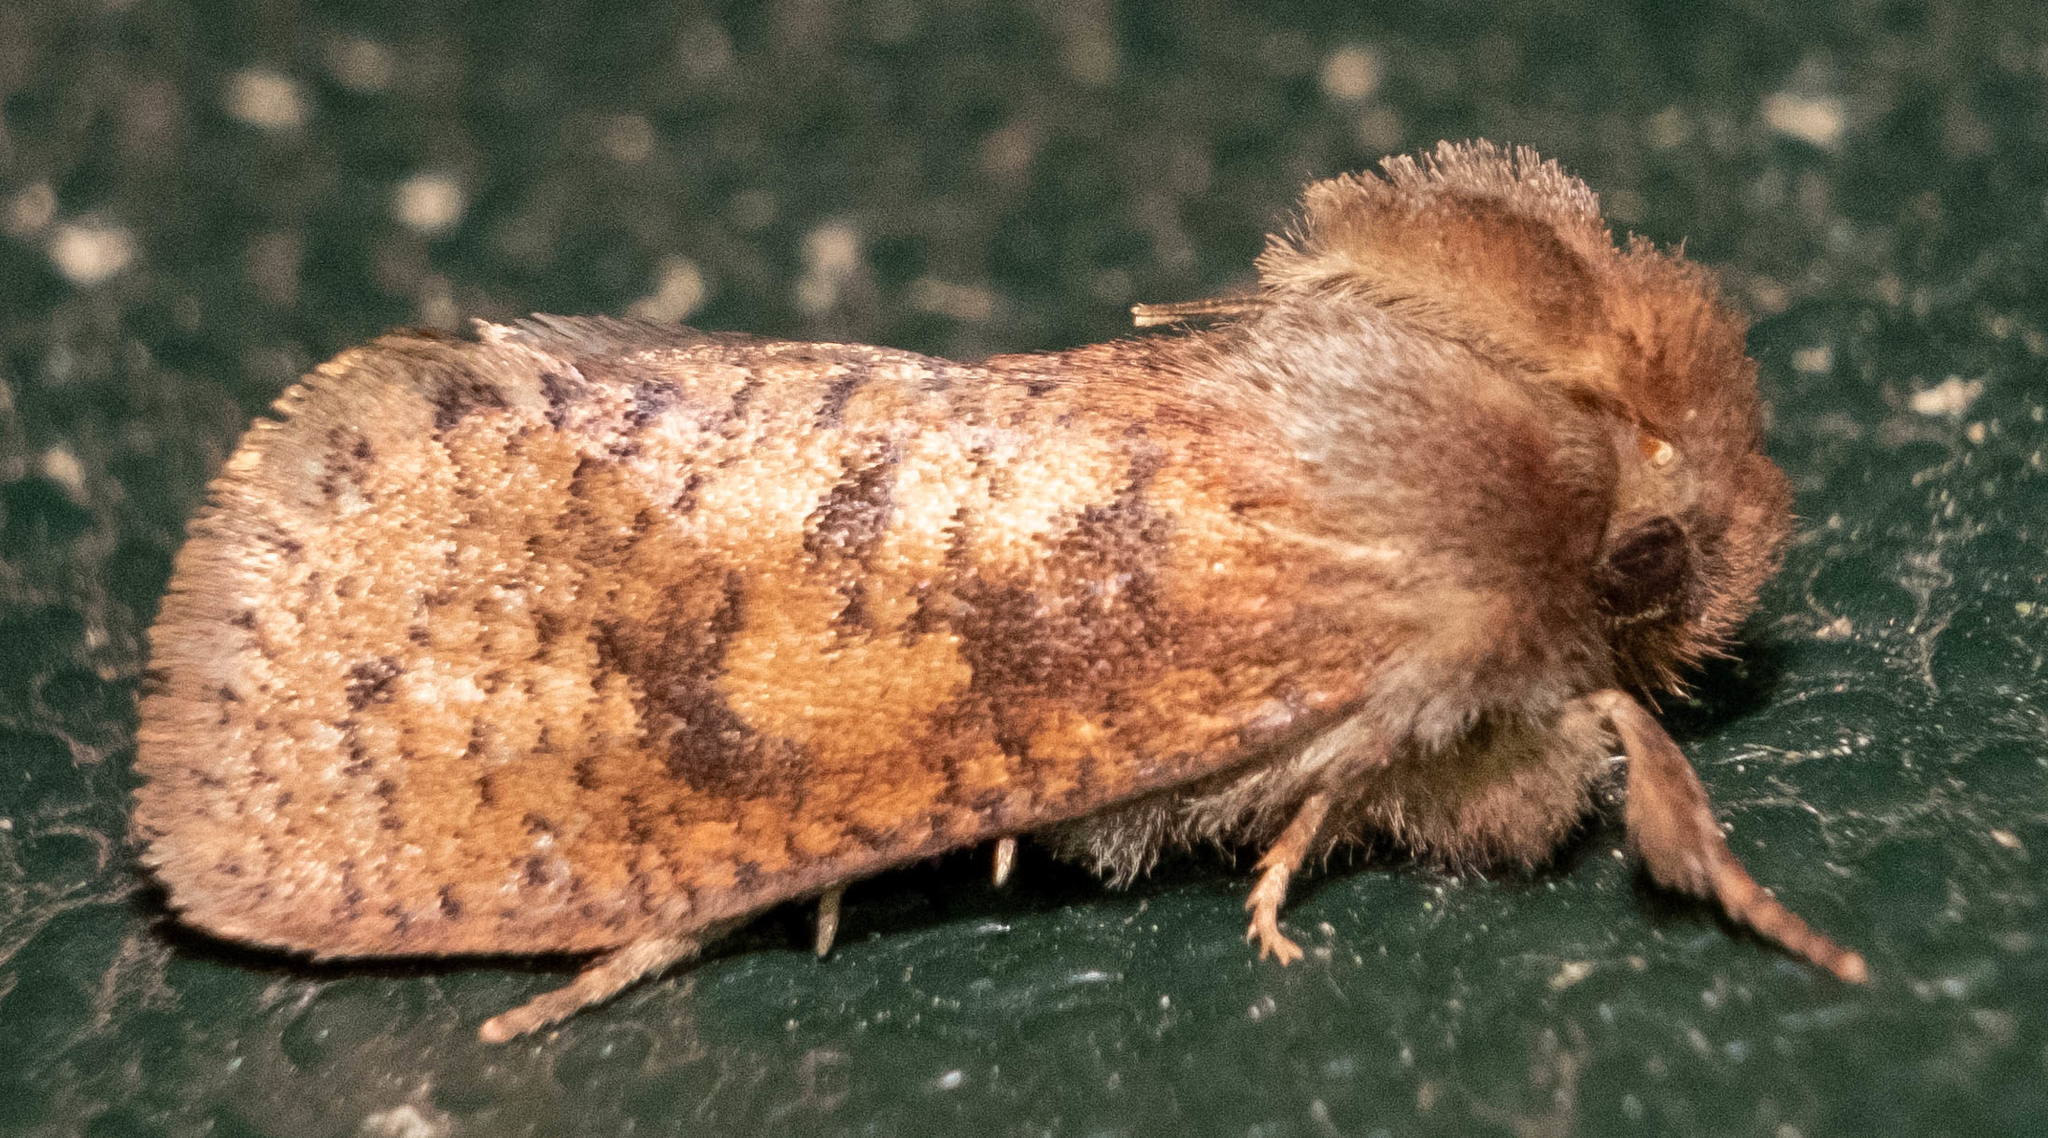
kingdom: Animalia
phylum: Arthropoda
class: Insecta
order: Lepidoptera
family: Tineidae
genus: Acrolophus
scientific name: Acrolophus plumifrontella
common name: Eastern grass tubeworm moth
